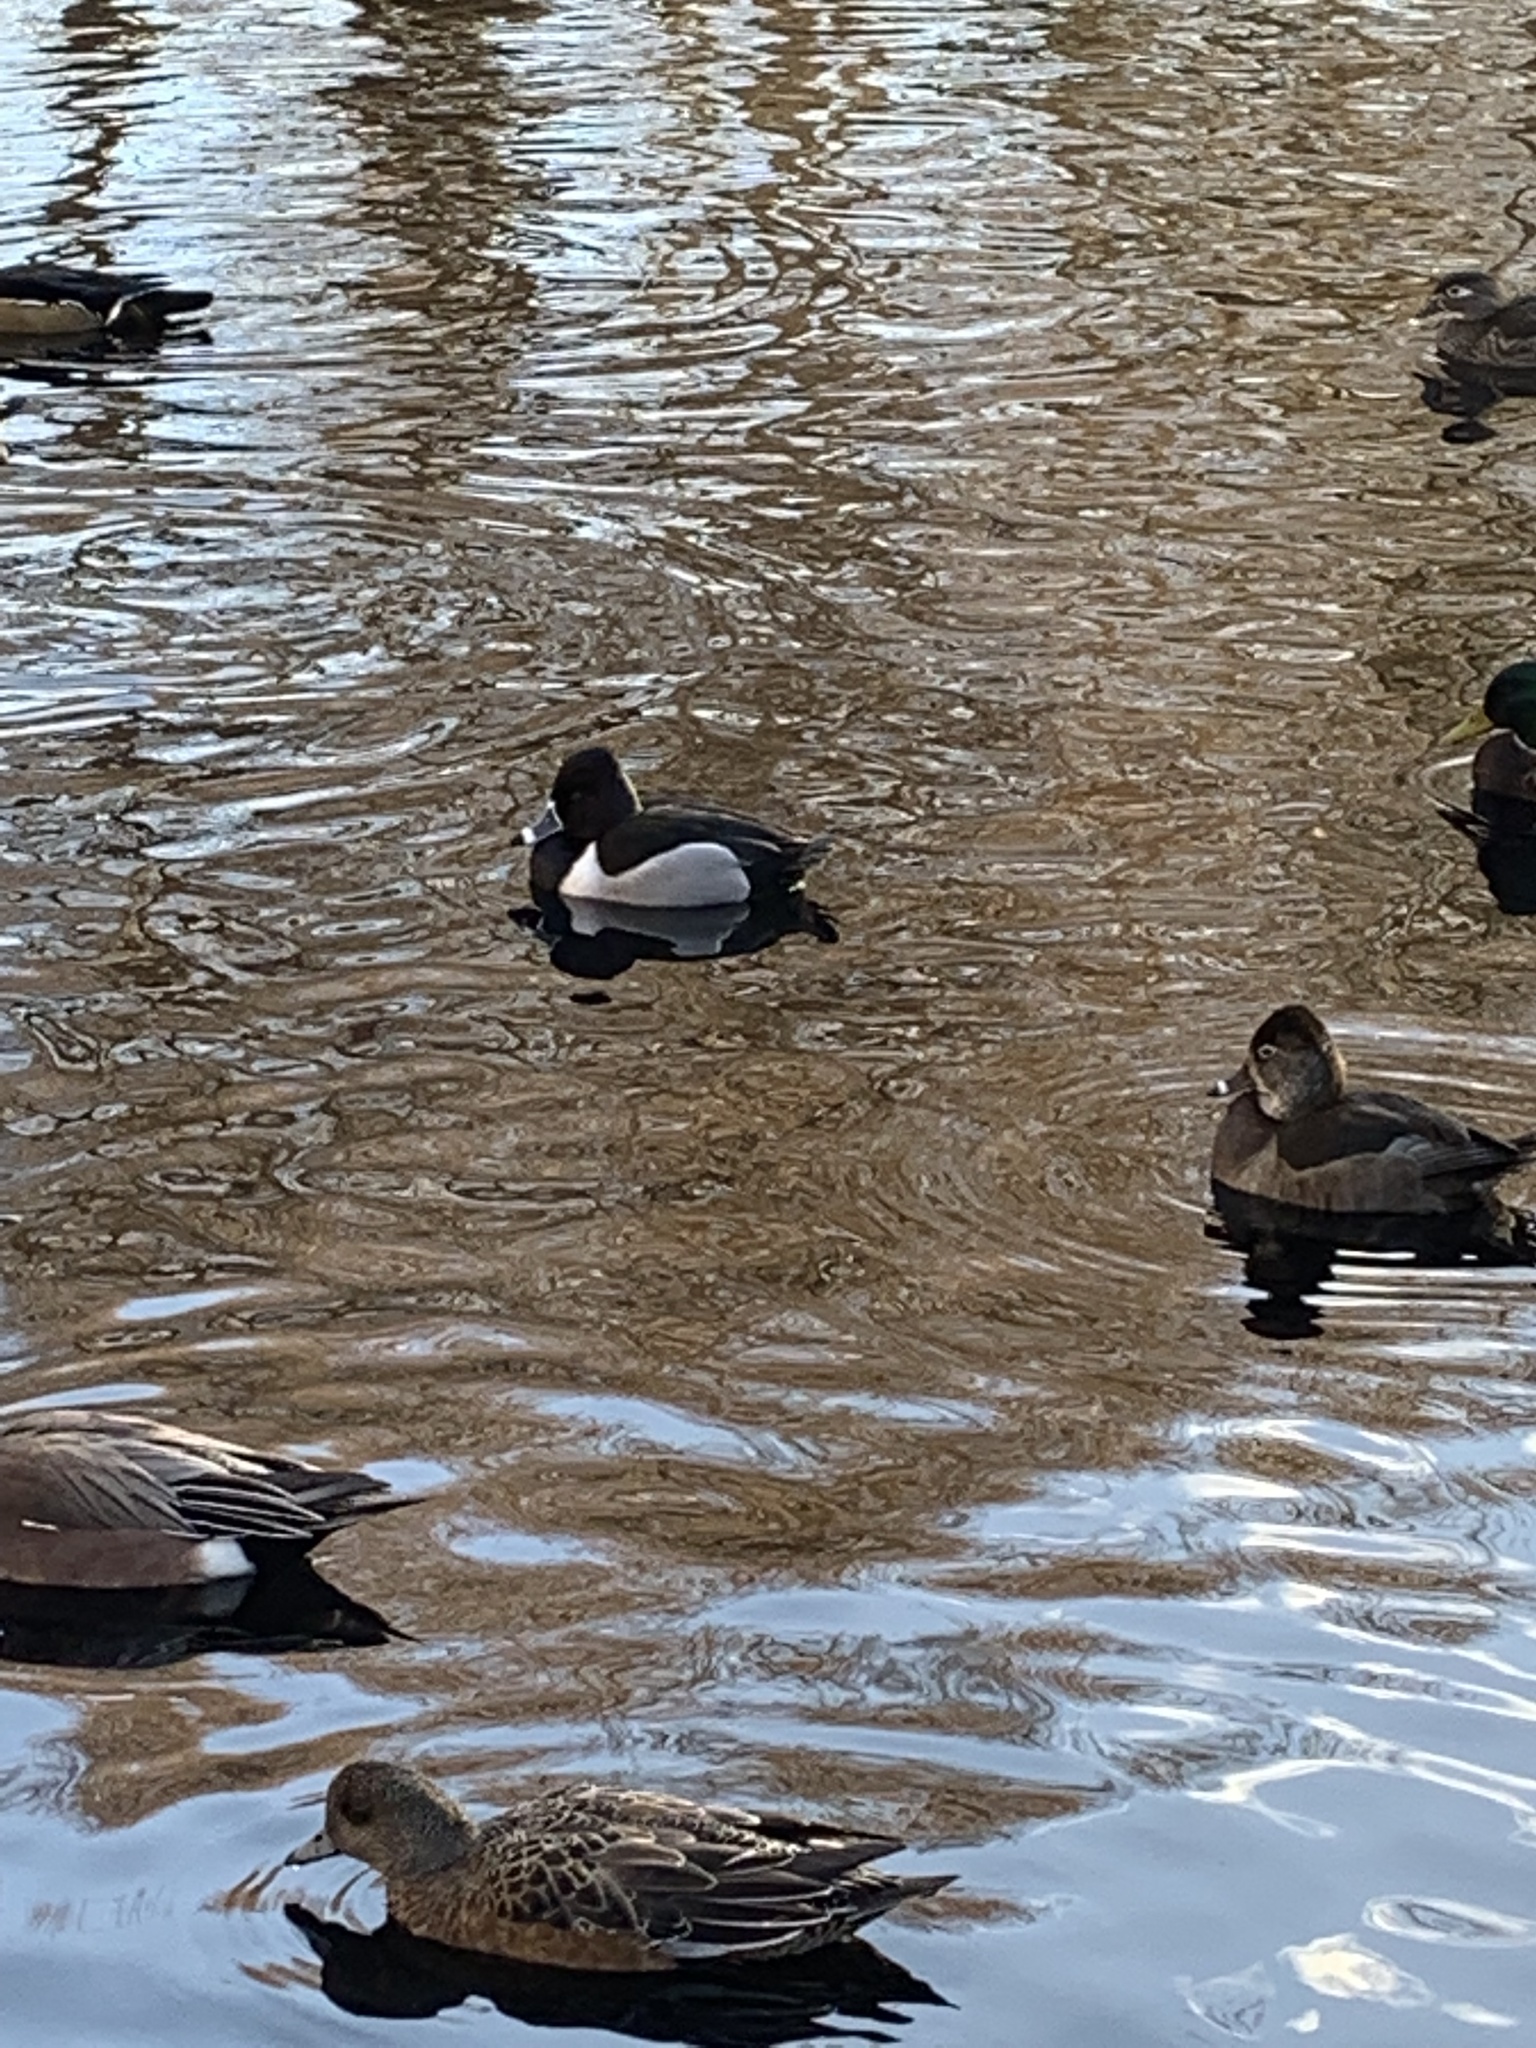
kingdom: Animalia
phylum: Chordata
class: Aves
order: Anseriformes
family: Anatidae
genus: Aythya
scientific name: Aythya collaris
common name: Ring-necked duck
